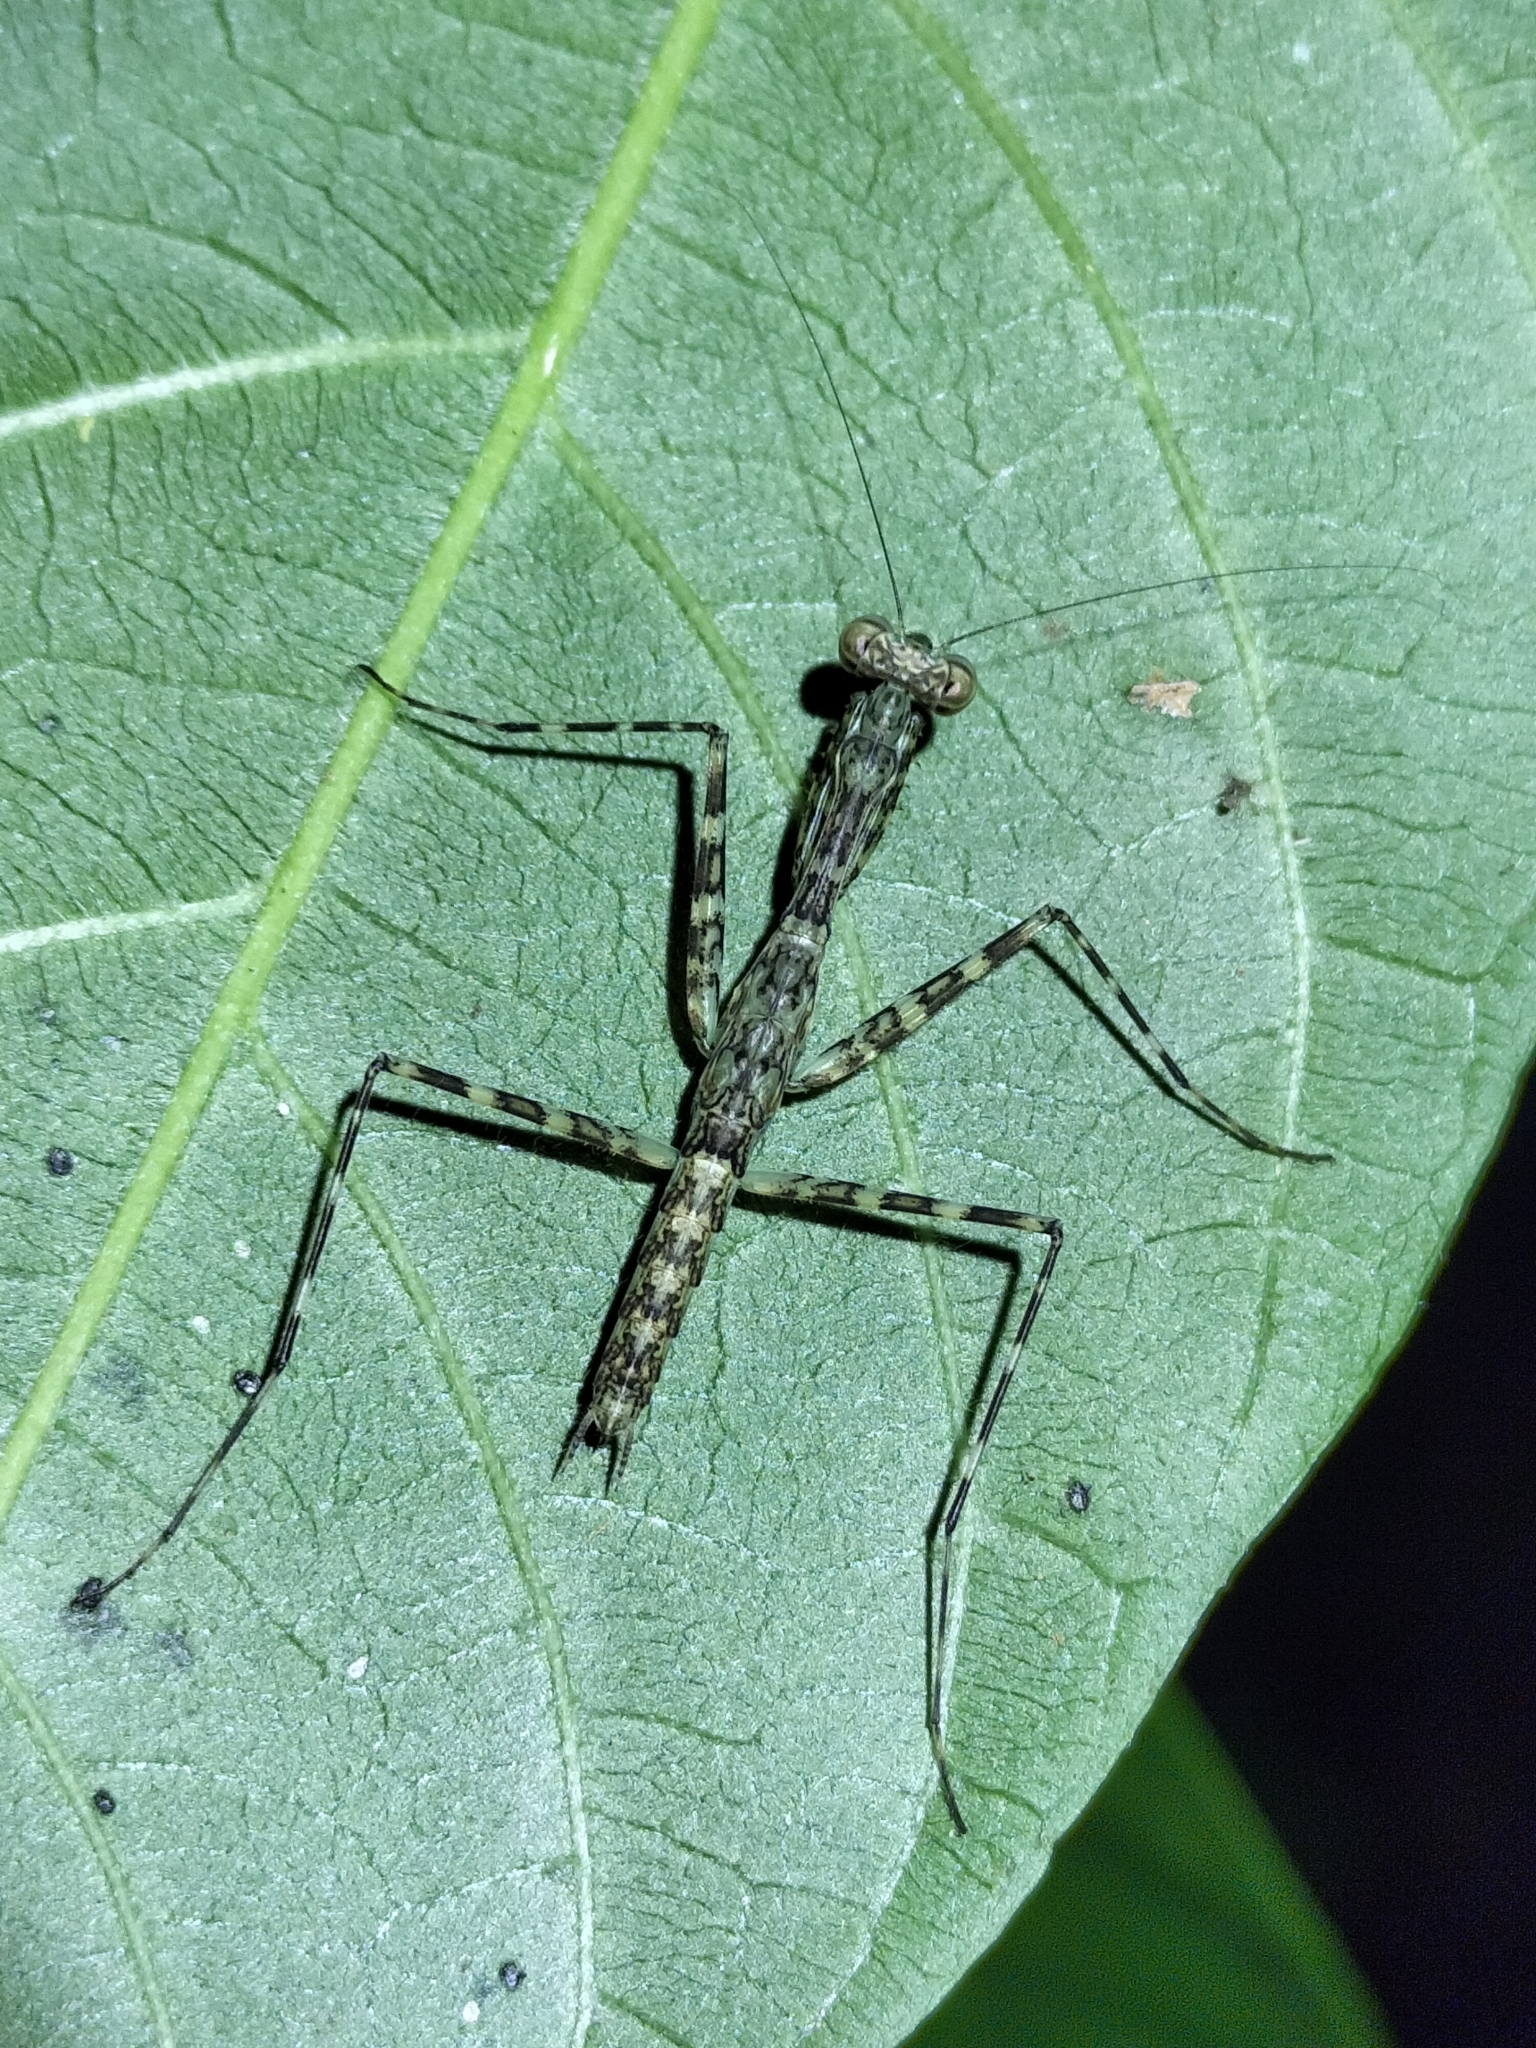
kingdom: Animalia
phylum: Arthropoda
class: Insecta
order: Mantodea
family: Nanomantidae
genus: Ciulfina
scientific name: Ciulfina rentzi
